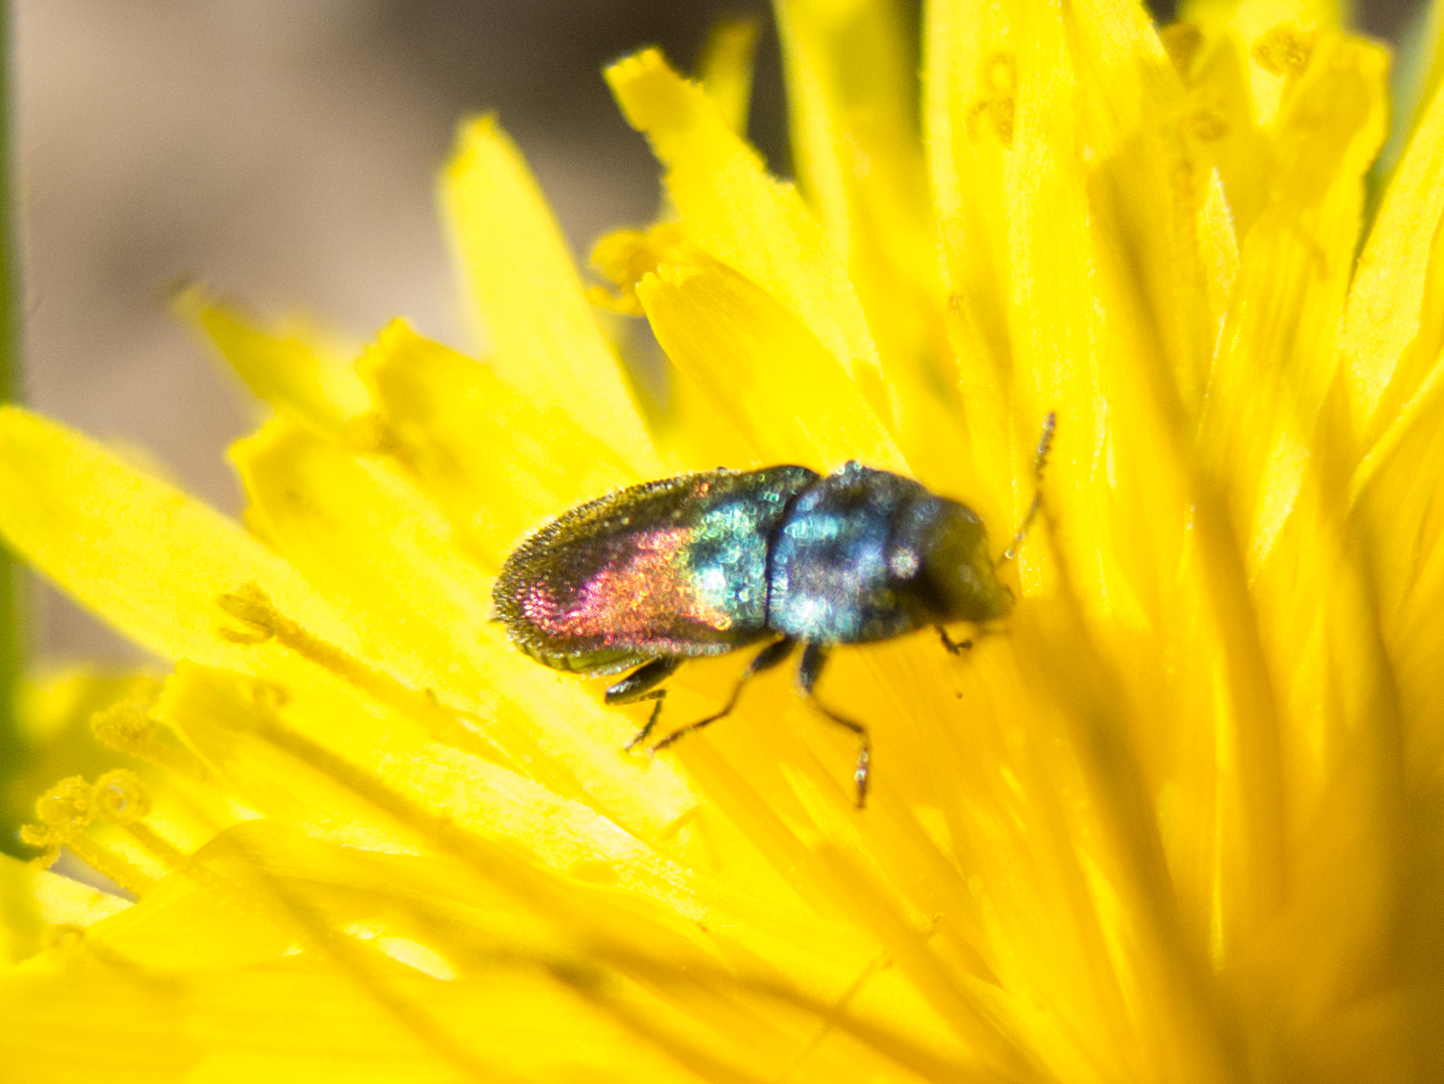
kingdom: Animalia
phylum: Arthropoda
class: Insecta
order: Coleoptera
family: Buprestidae
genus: Anthaxia
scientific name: Anthaxia salicis
